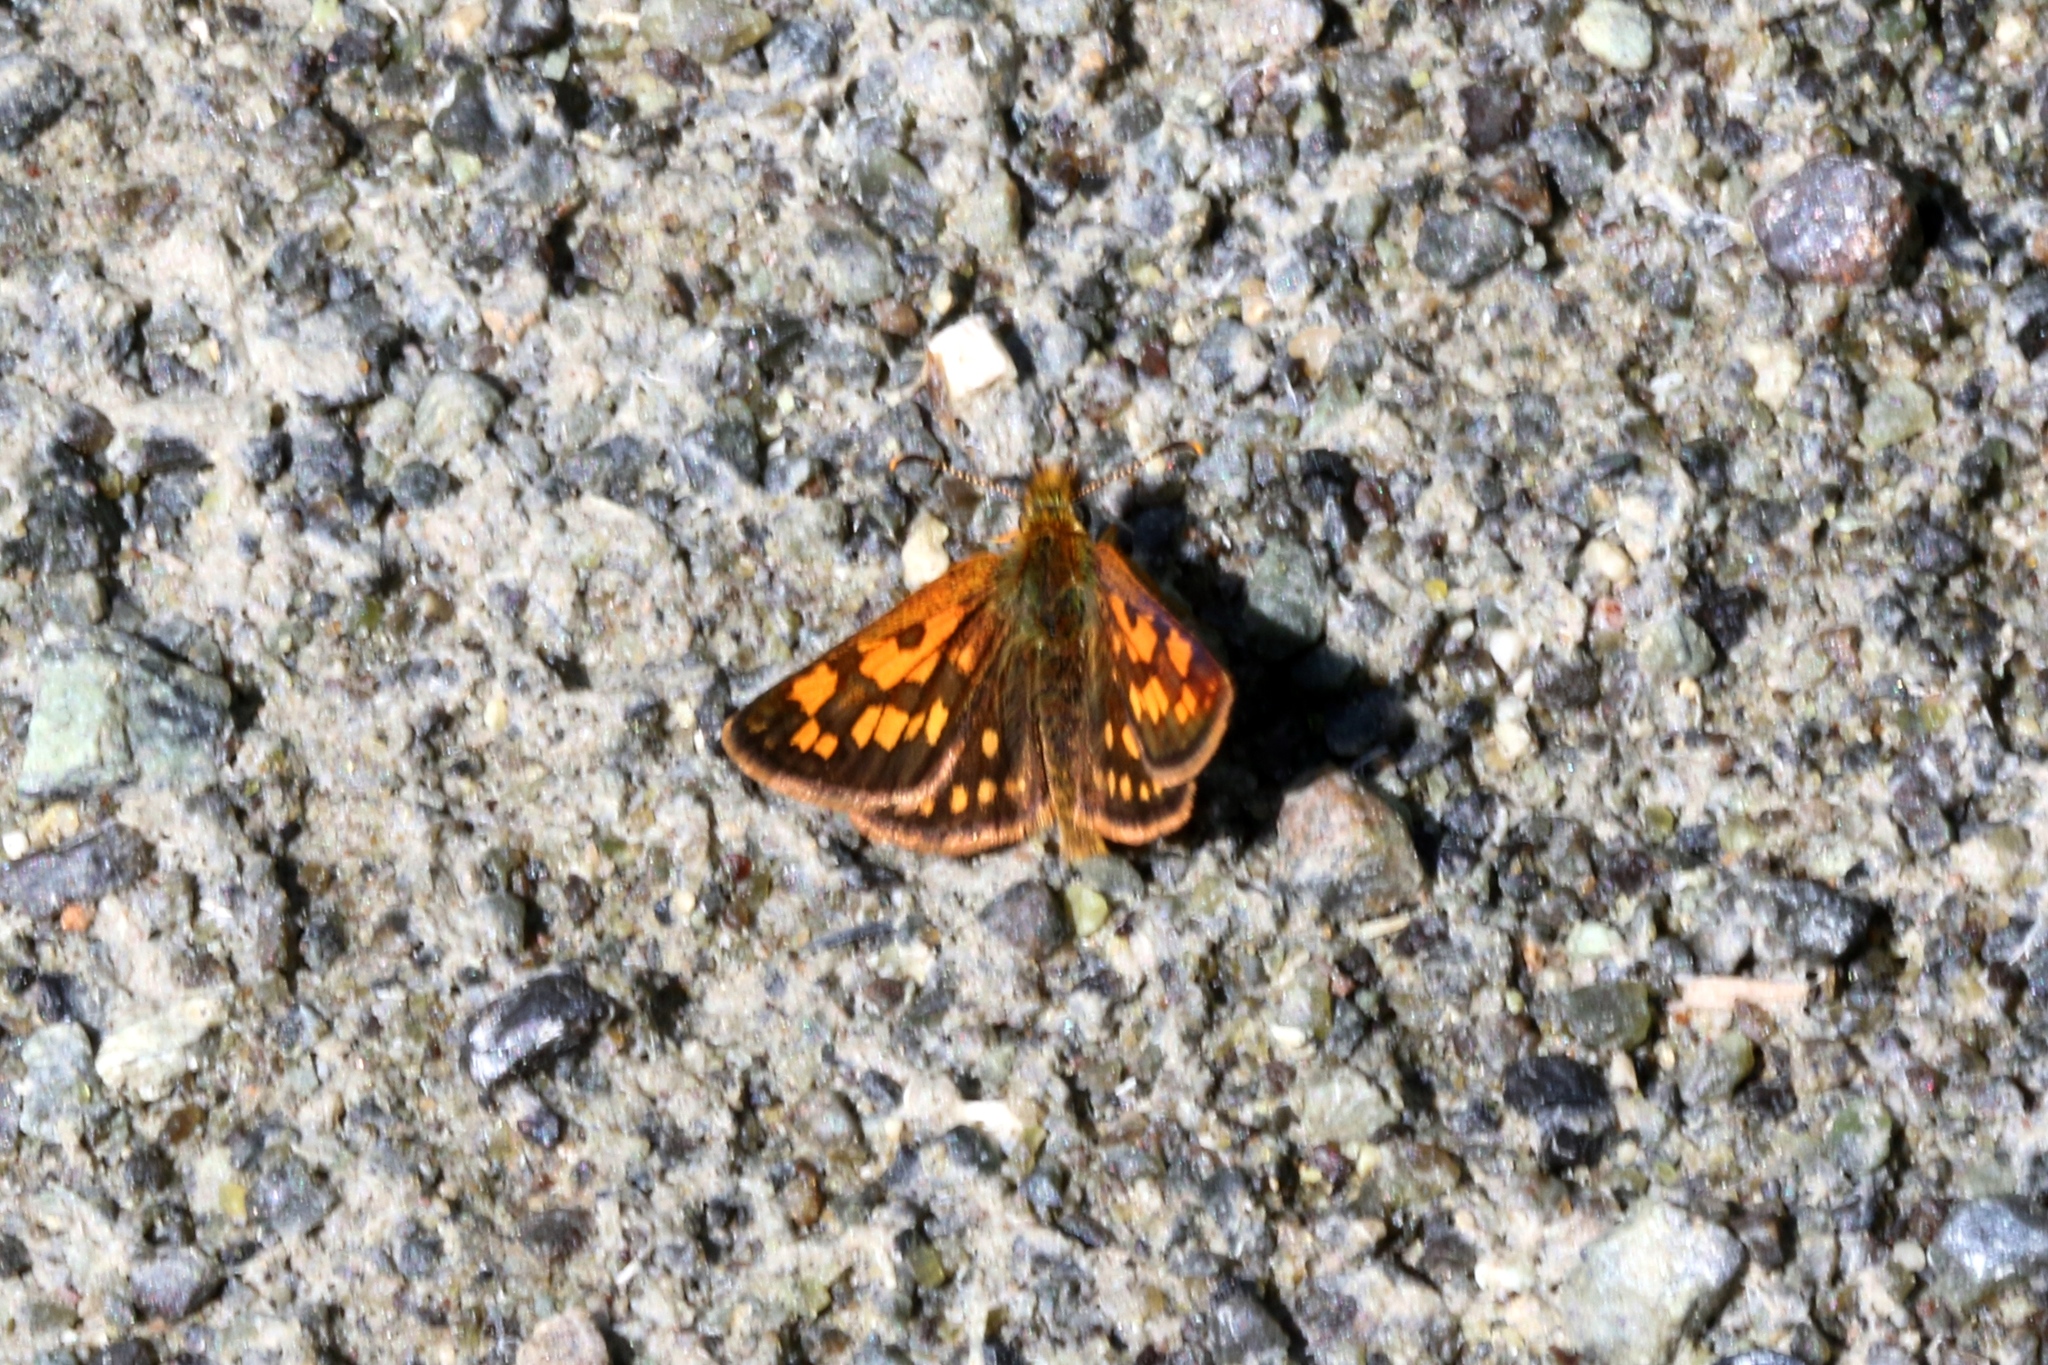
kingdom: Animalia
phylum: Arthropoda
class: Insecta
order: Lepidoptera
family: Hesperiidae
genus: Carterocephalus
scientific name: Carterocephalus mandan
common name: Arctic skipperling
